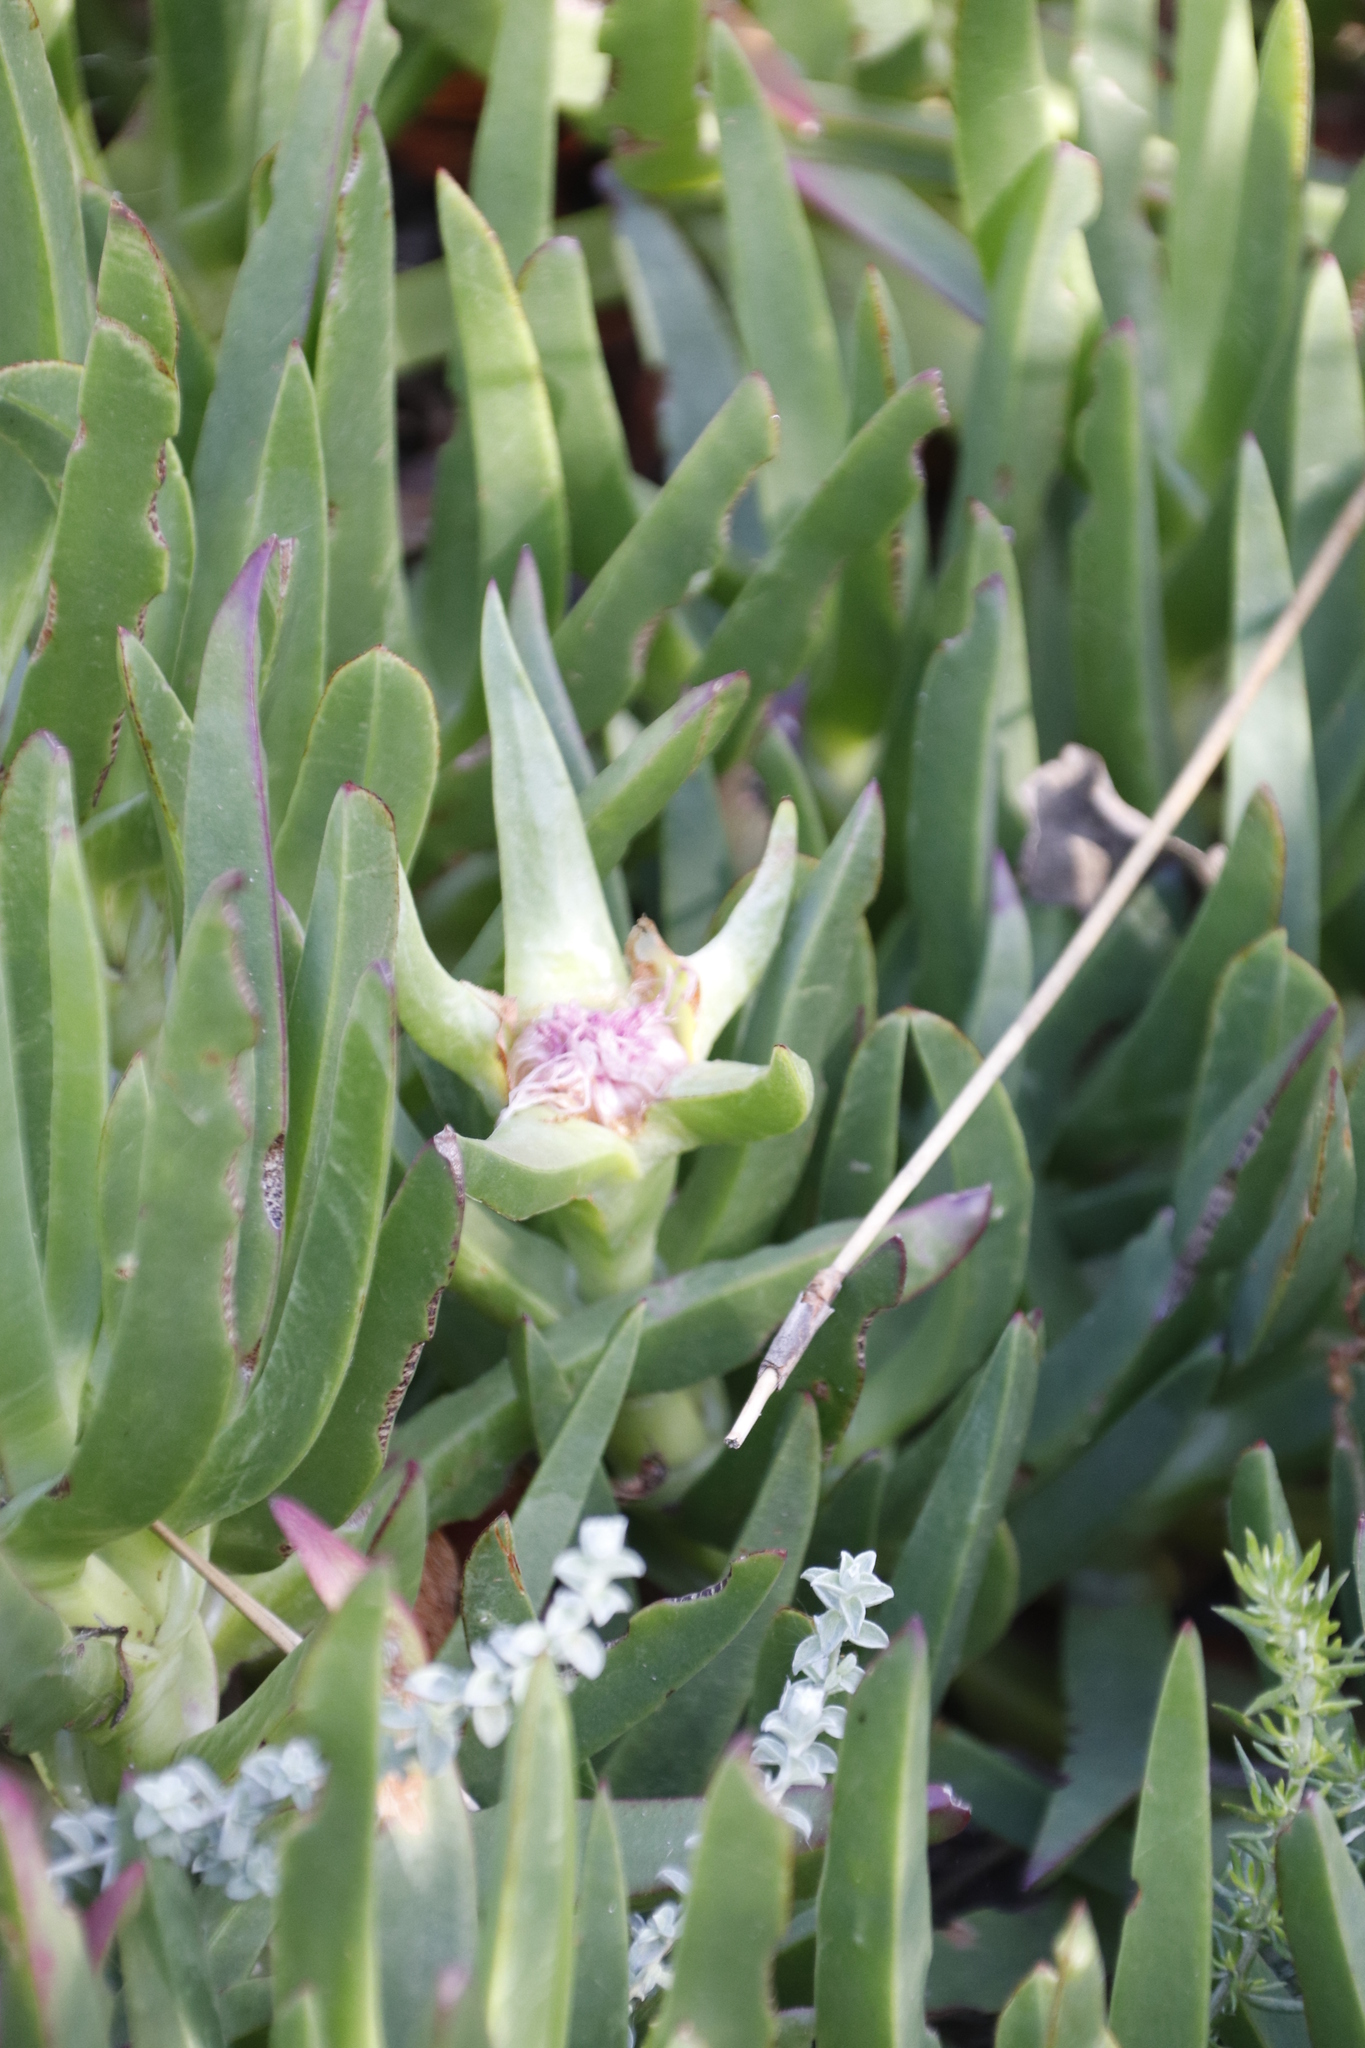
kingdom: Plantae
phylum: Tracheophyta
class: Magnoliopsida
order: Caryophyllales
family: Aizoaceae
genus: Carpobrotus
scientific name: Carpobrotus edulis
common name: Hottentot-fig
